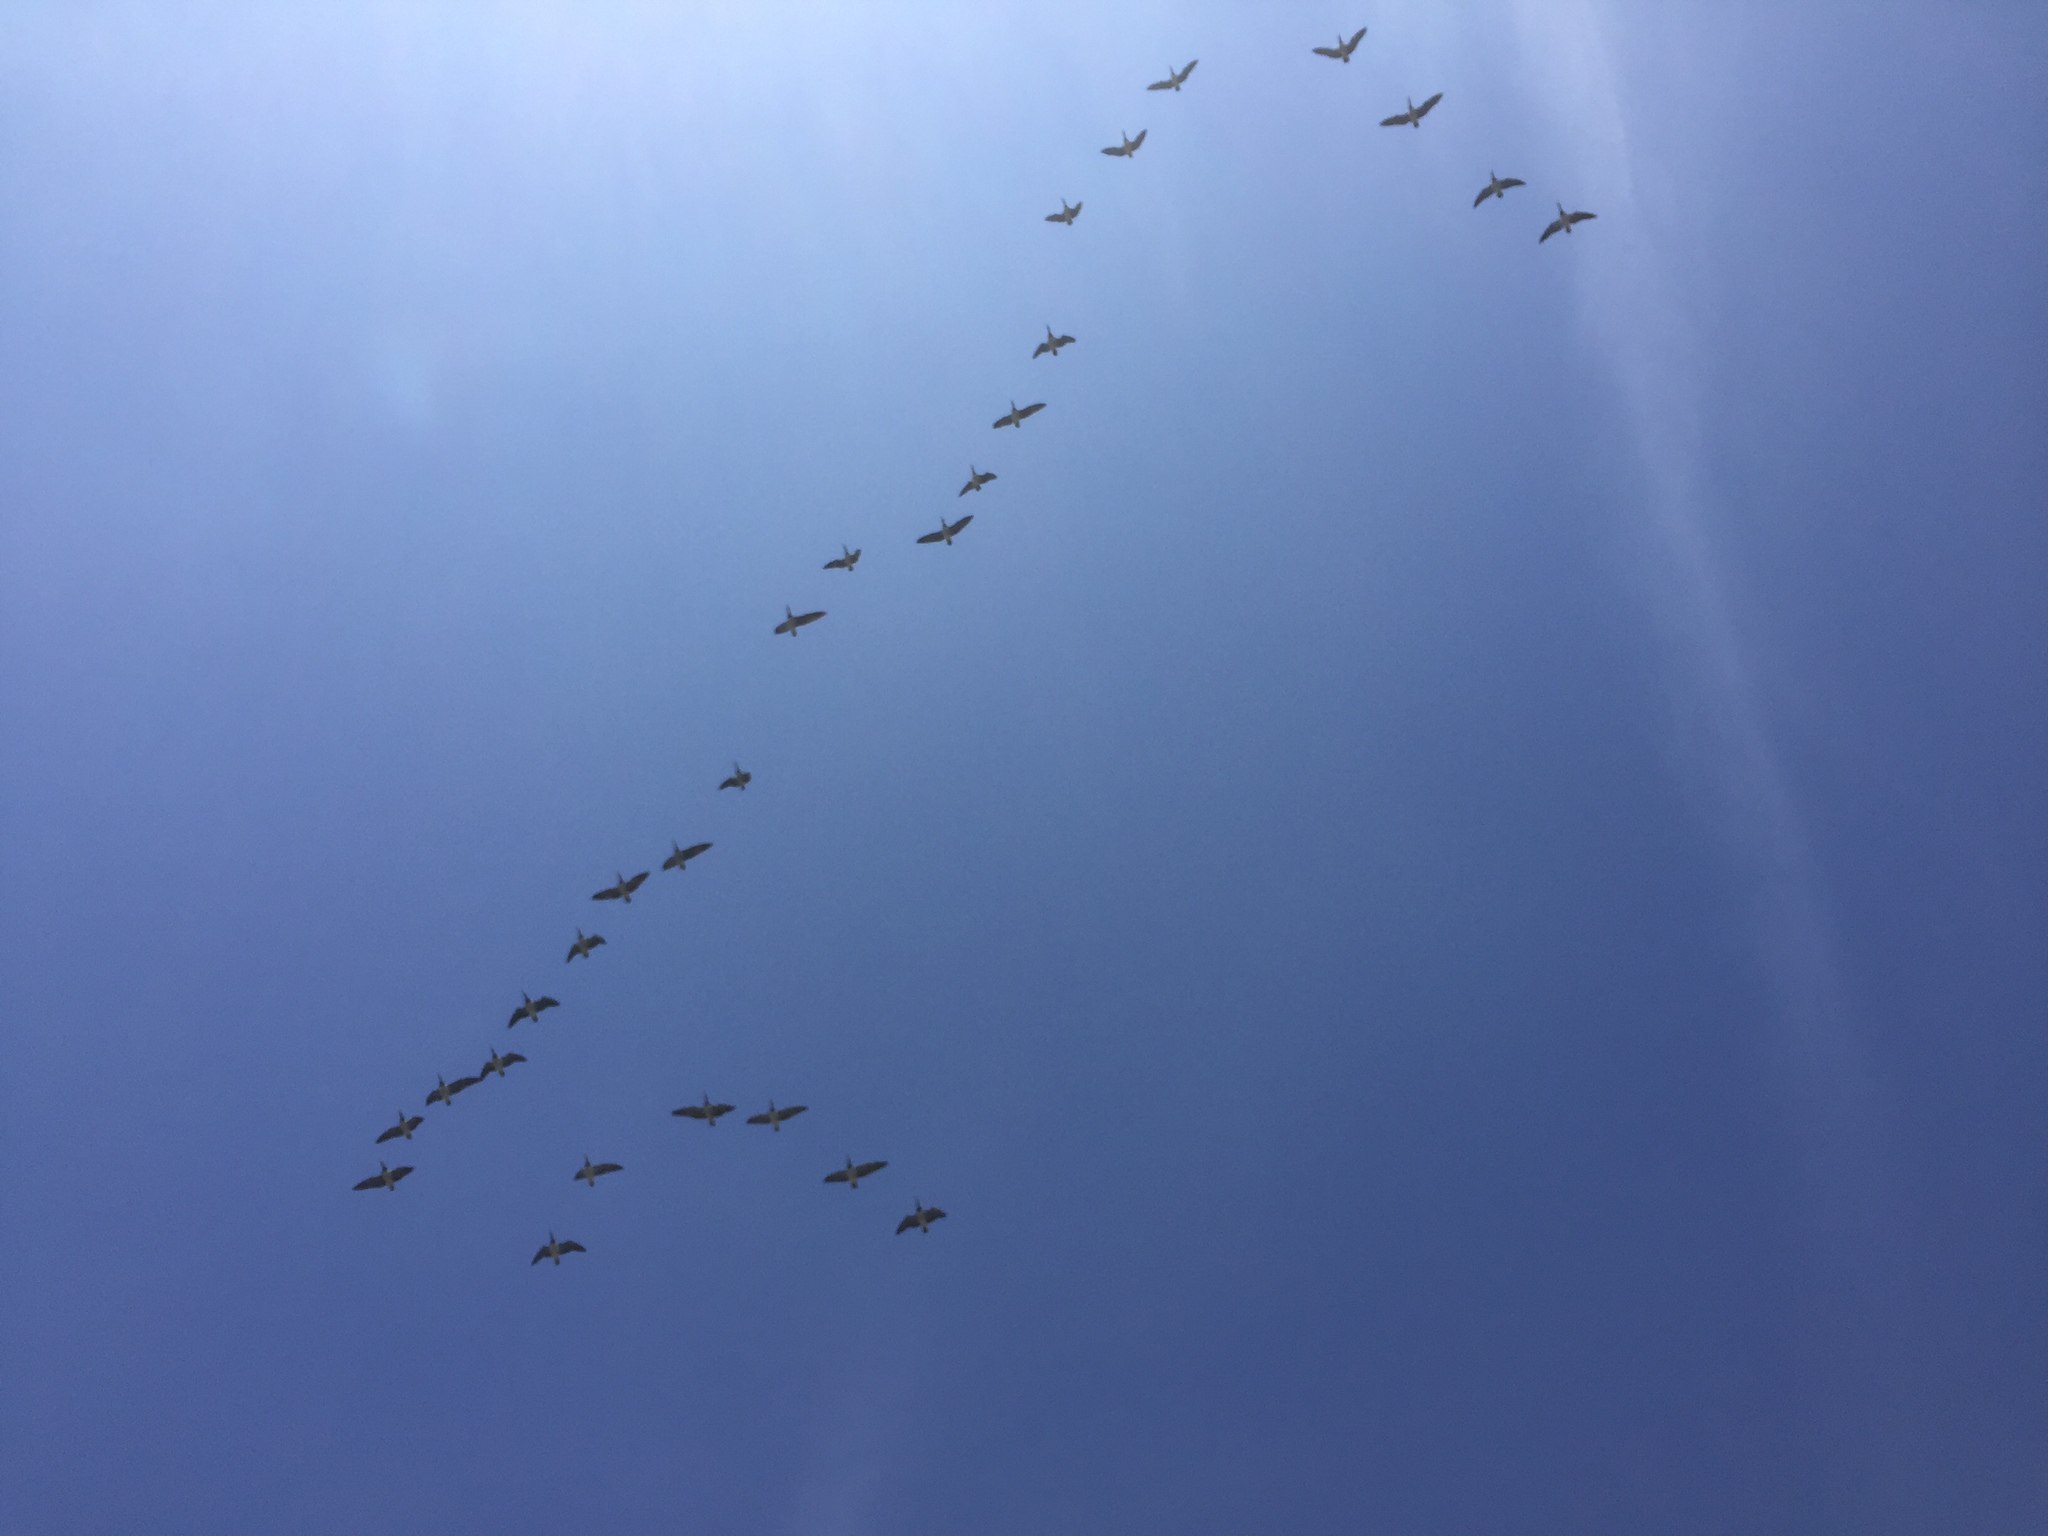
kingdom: Animalia
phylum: Chordata
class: Aves
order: Anseriformes
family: Anatidae
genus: Branta
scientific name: Branta leucopsis
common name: Barnacle goose
